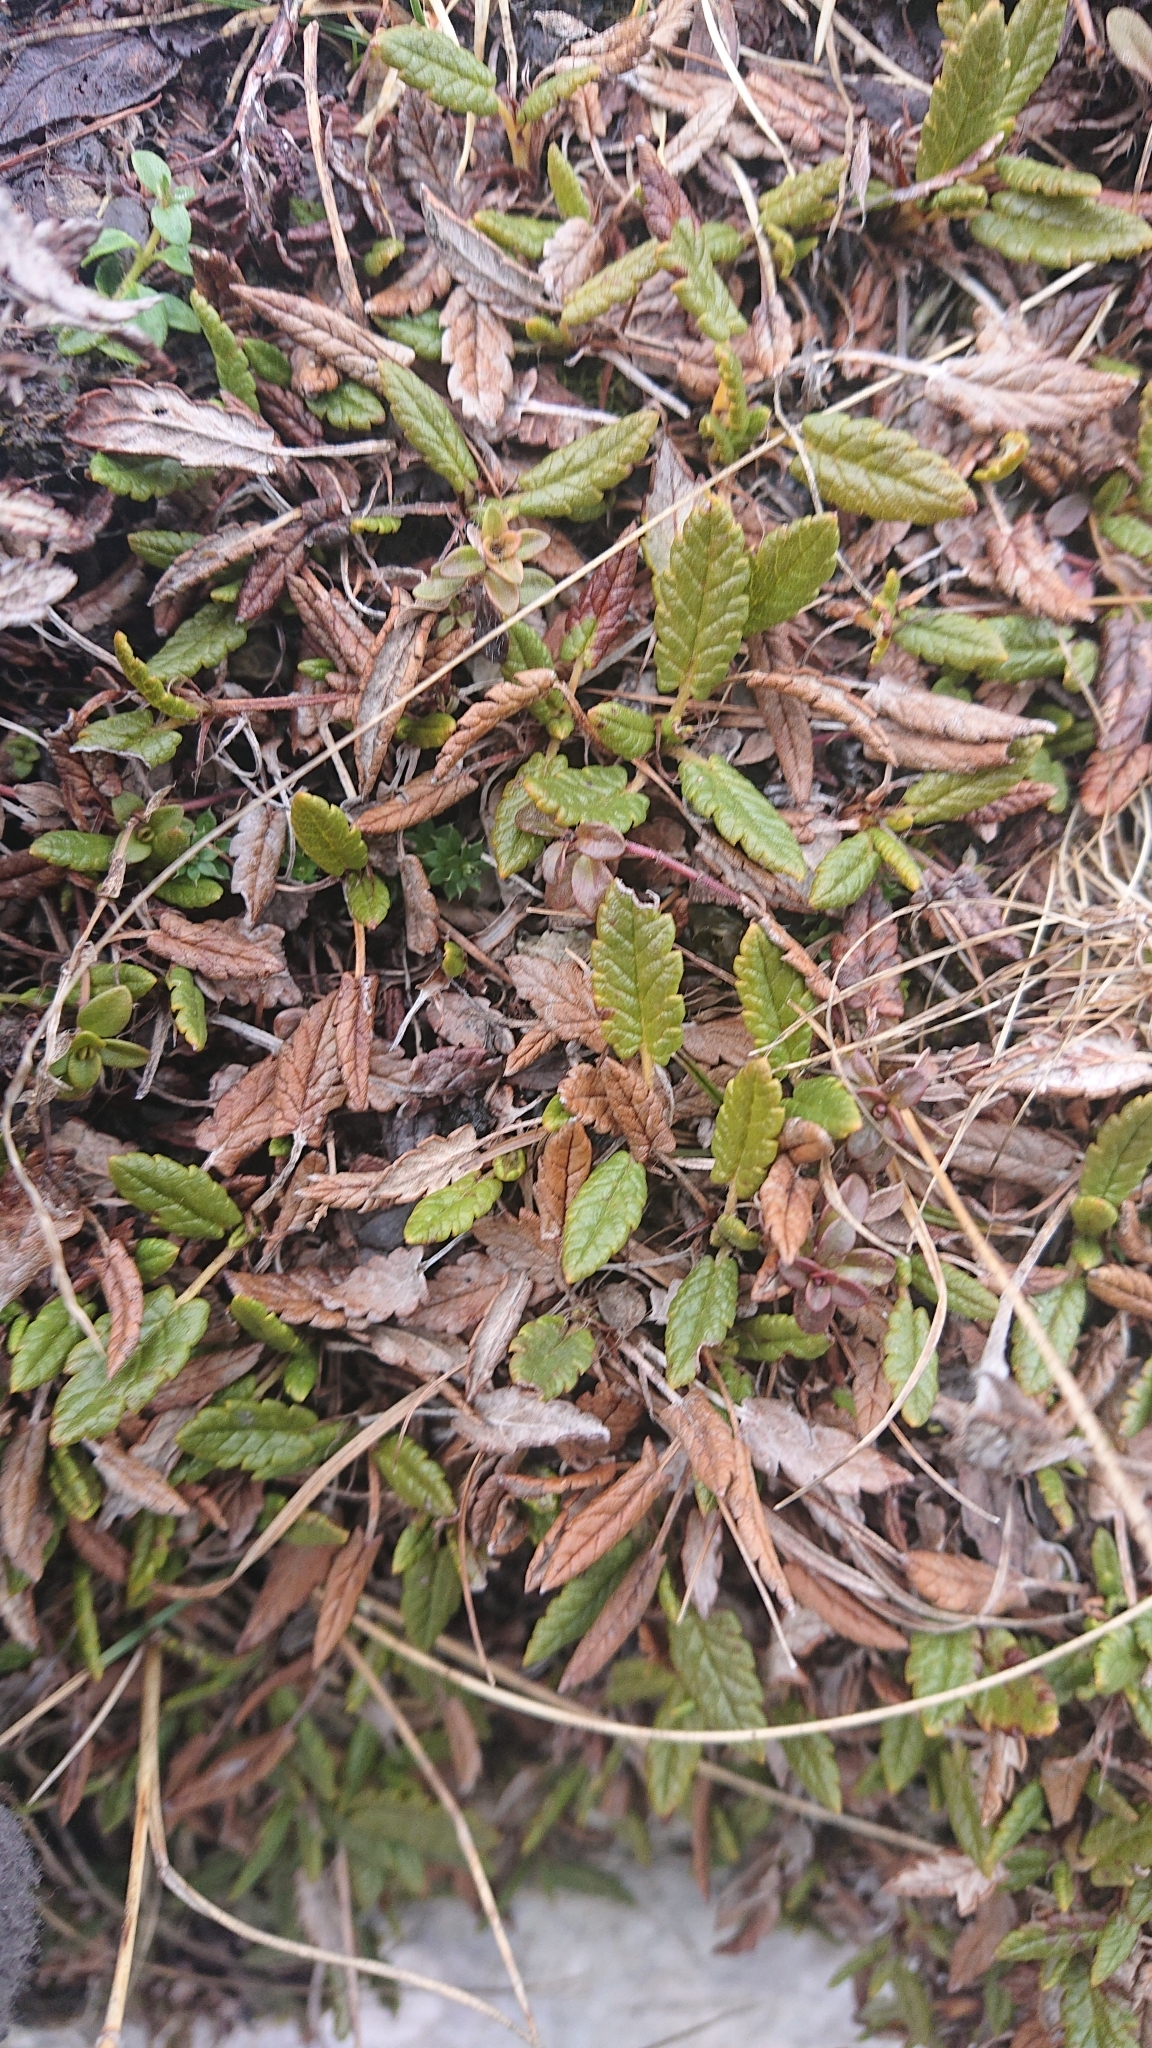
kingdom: Plantae
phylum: Tracheophyta
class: Magnoliopsida
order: Rosales
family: Rosaceae
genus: Dryas
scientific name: Dryas octopetala
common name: Eight-petal mountain-avens
